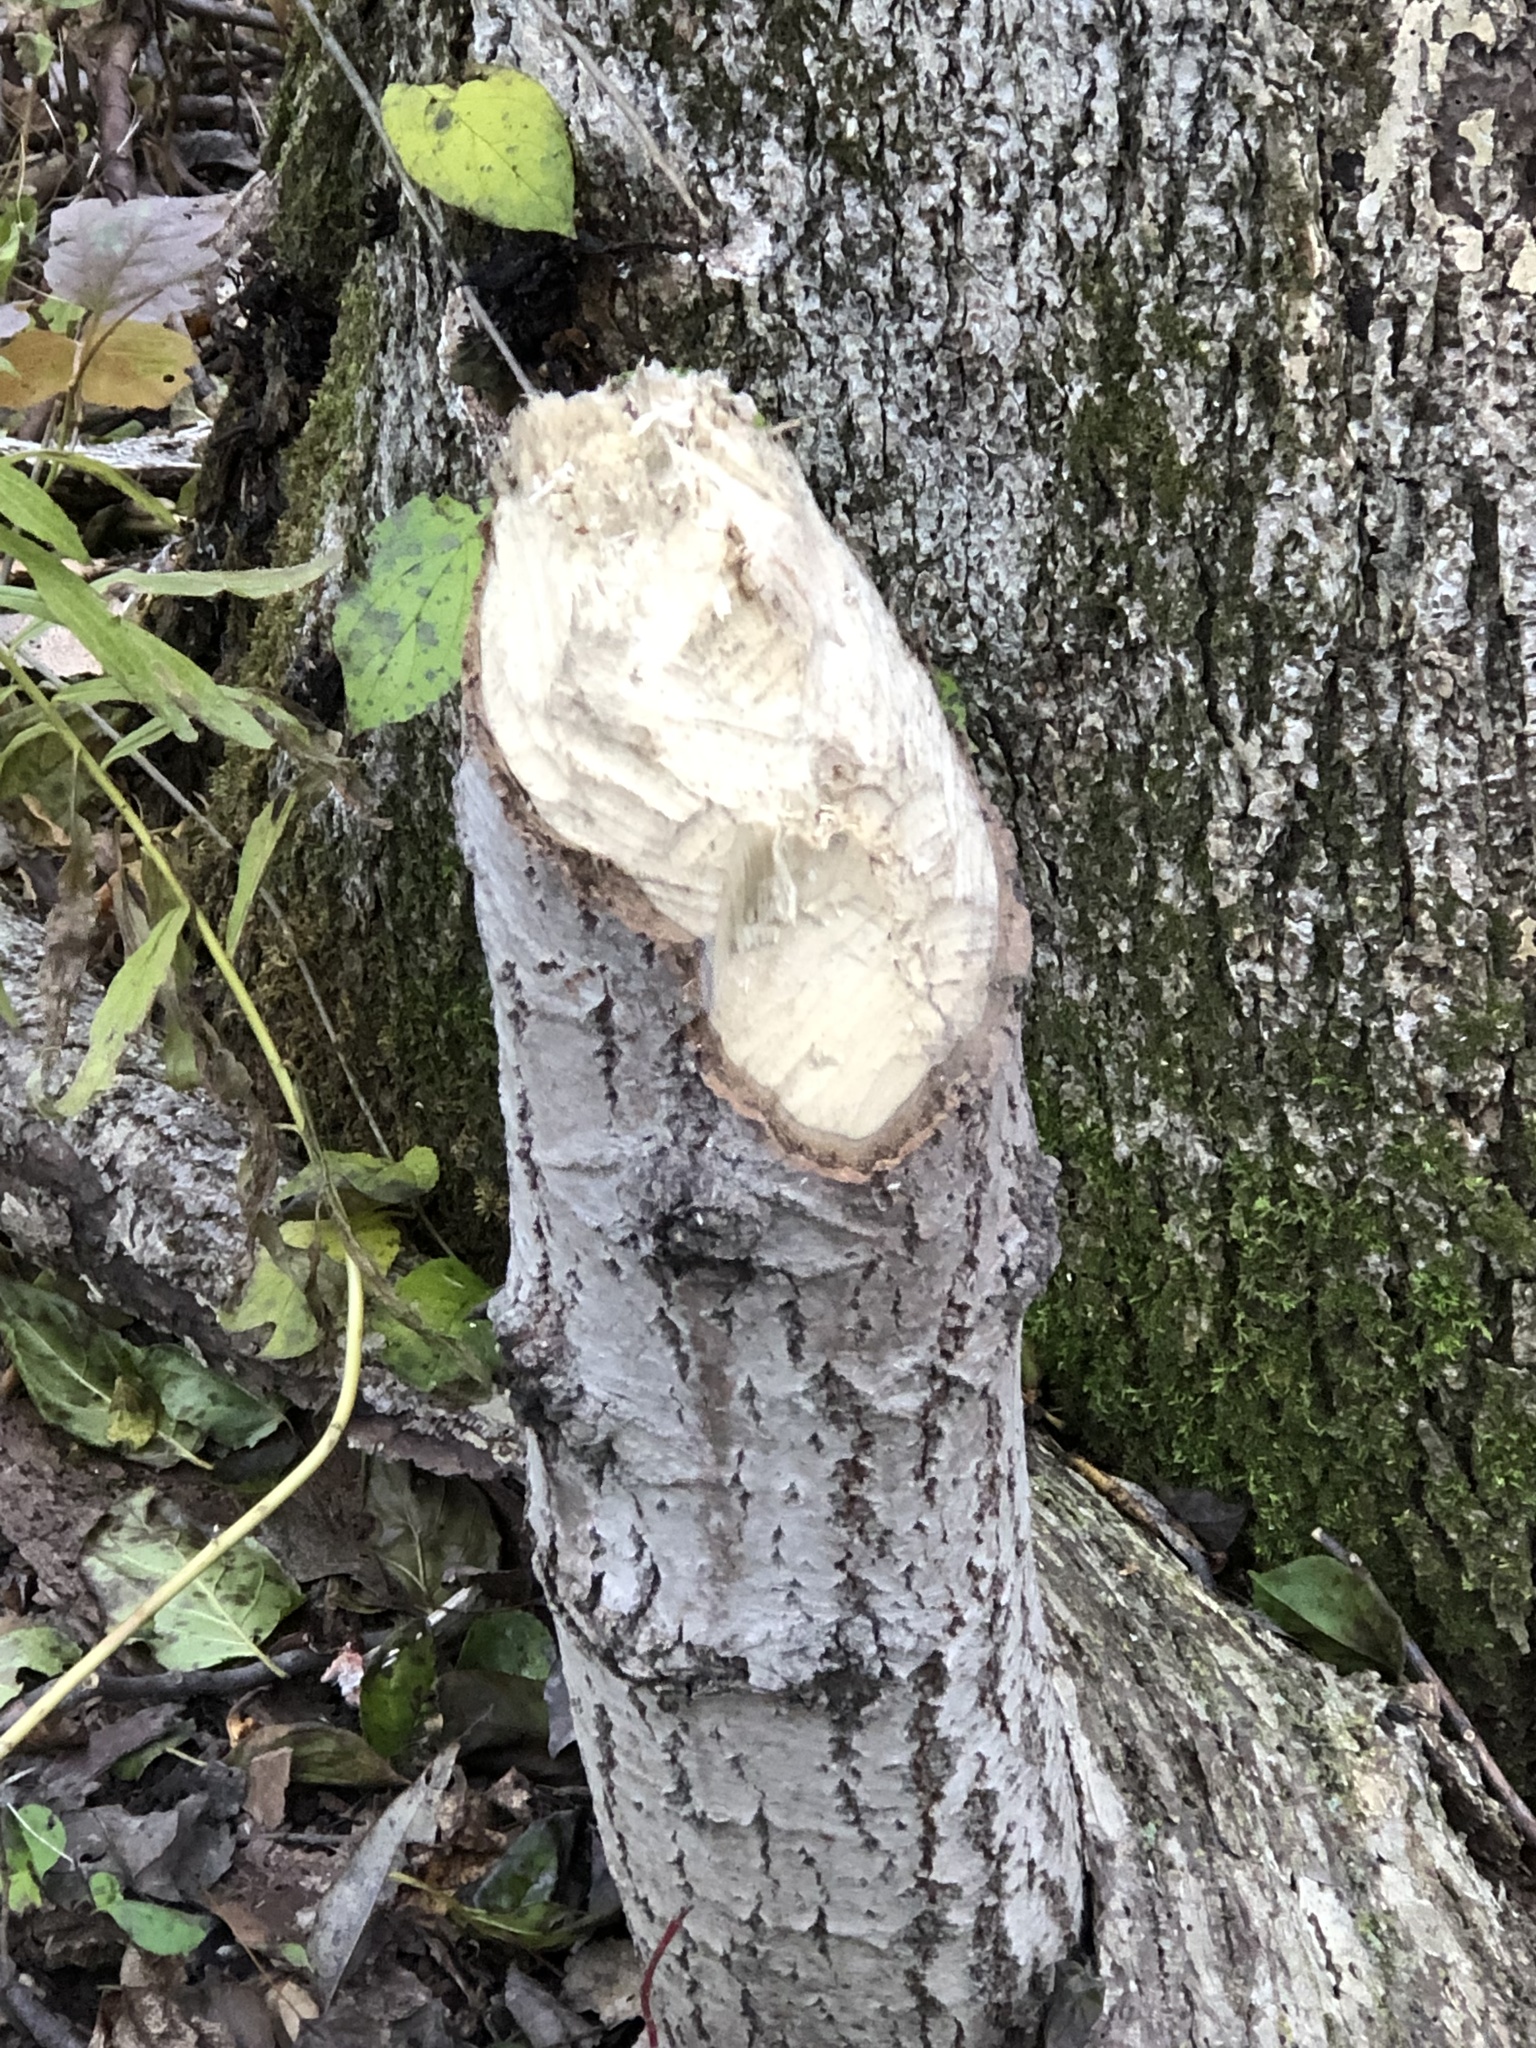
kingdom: Animalia
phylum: Chordata
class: Mammalia
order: Rodentia
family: Castoridae
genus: Castor
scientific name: Castor canadensis
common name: American beaver
